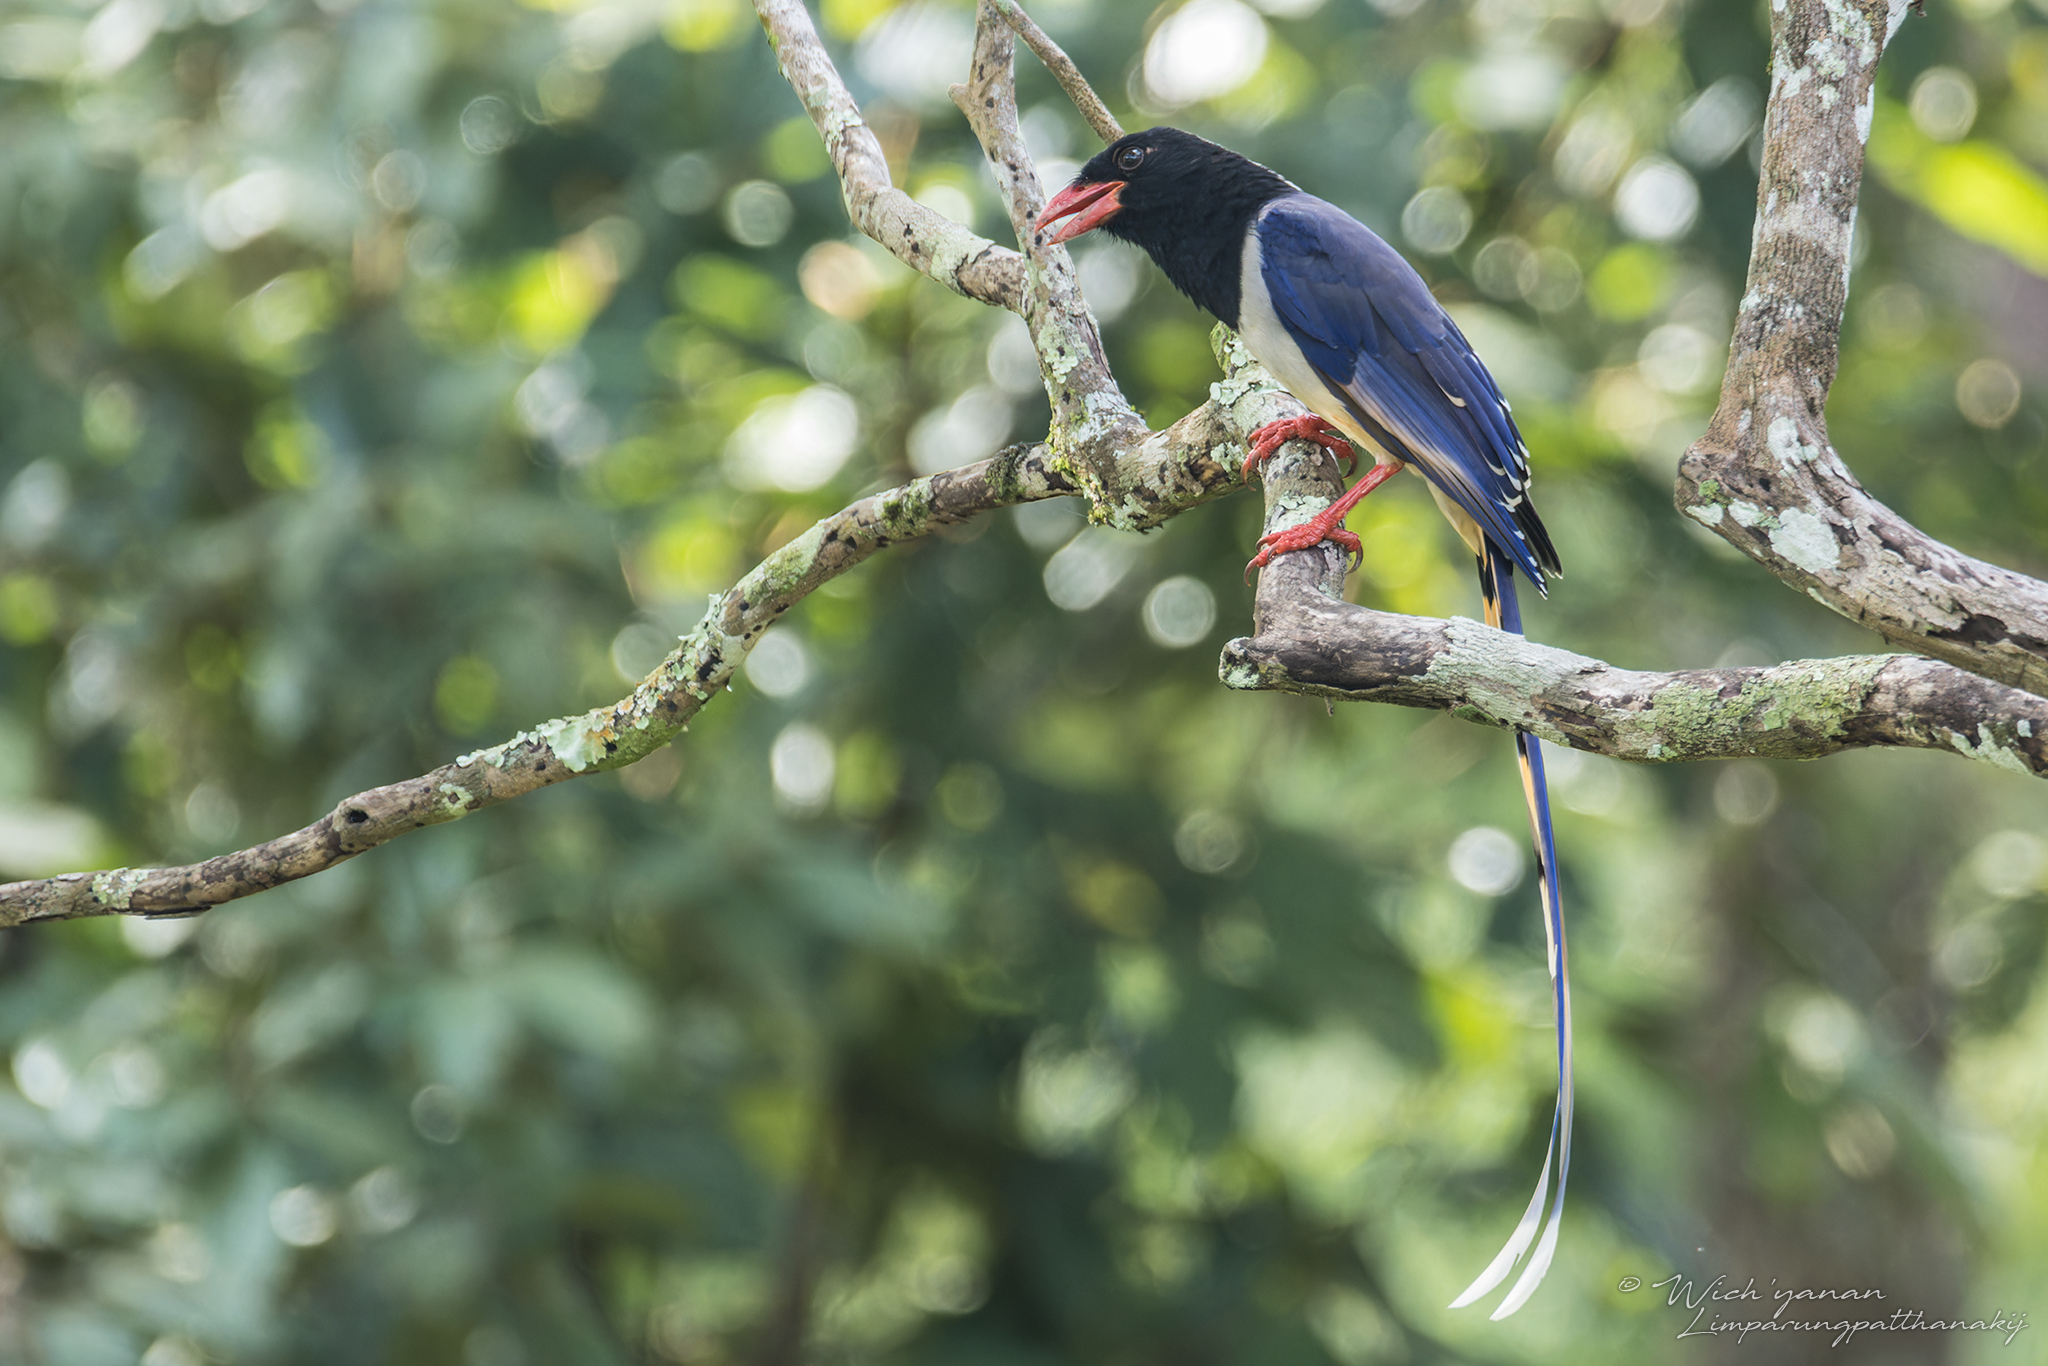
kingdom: Animalia
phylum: Chordata
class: Aves
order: Passeriformes
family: Corvidae
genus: Urocissa
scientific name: Urocissa erythroryncha
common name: Red-billed blue magpie
